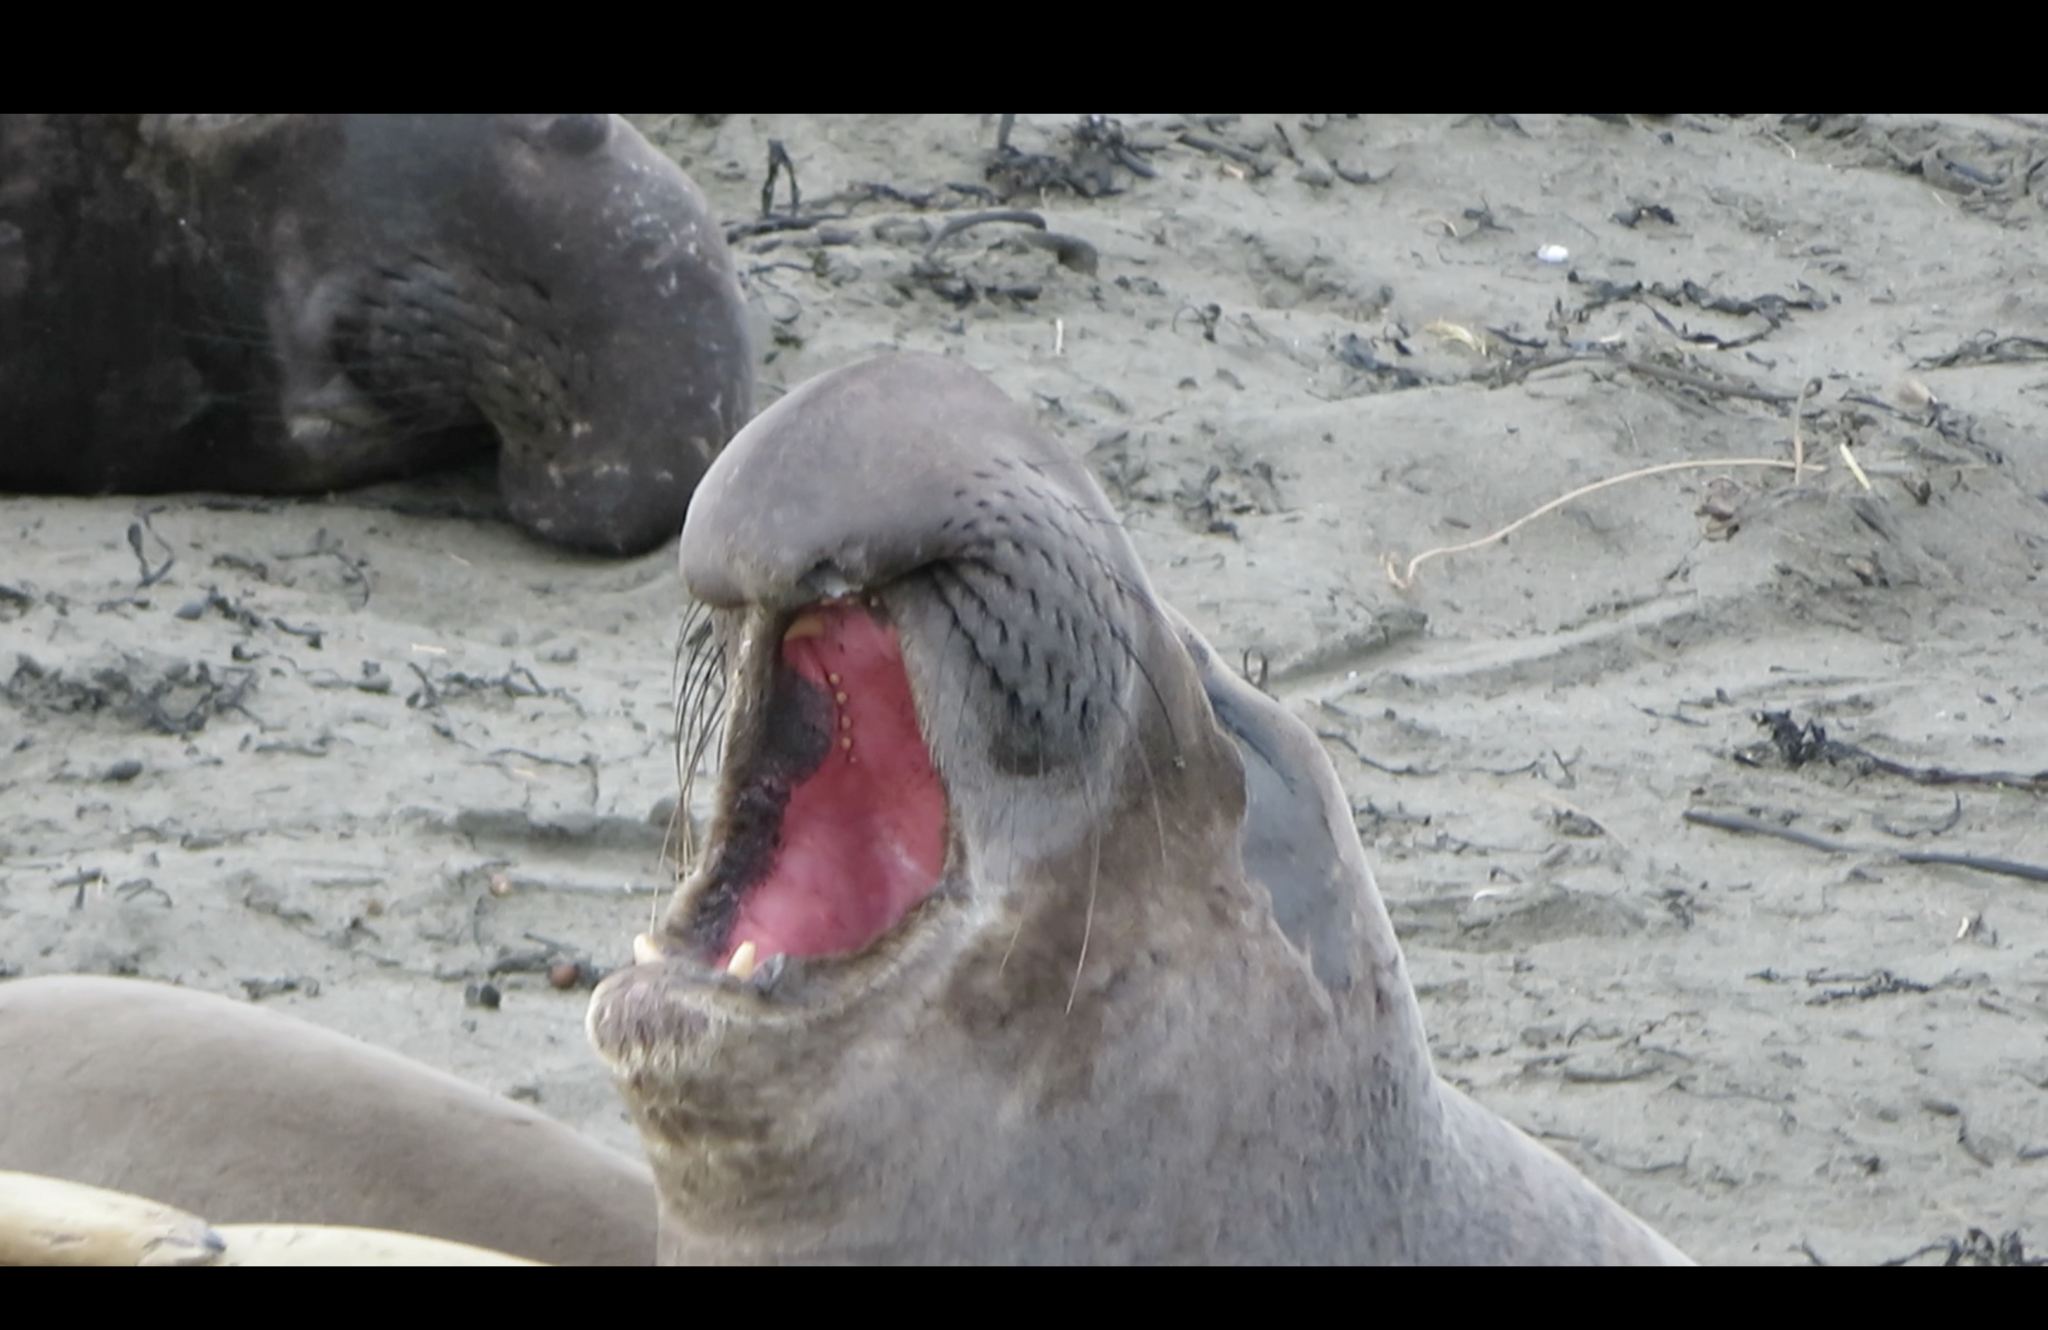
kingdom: Animalia
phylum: Chordata
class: Mammalia
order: Carnivora
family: Phocidae
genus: Mirounga
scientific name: Mirounga angustirostris
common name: Northern elephant seal
